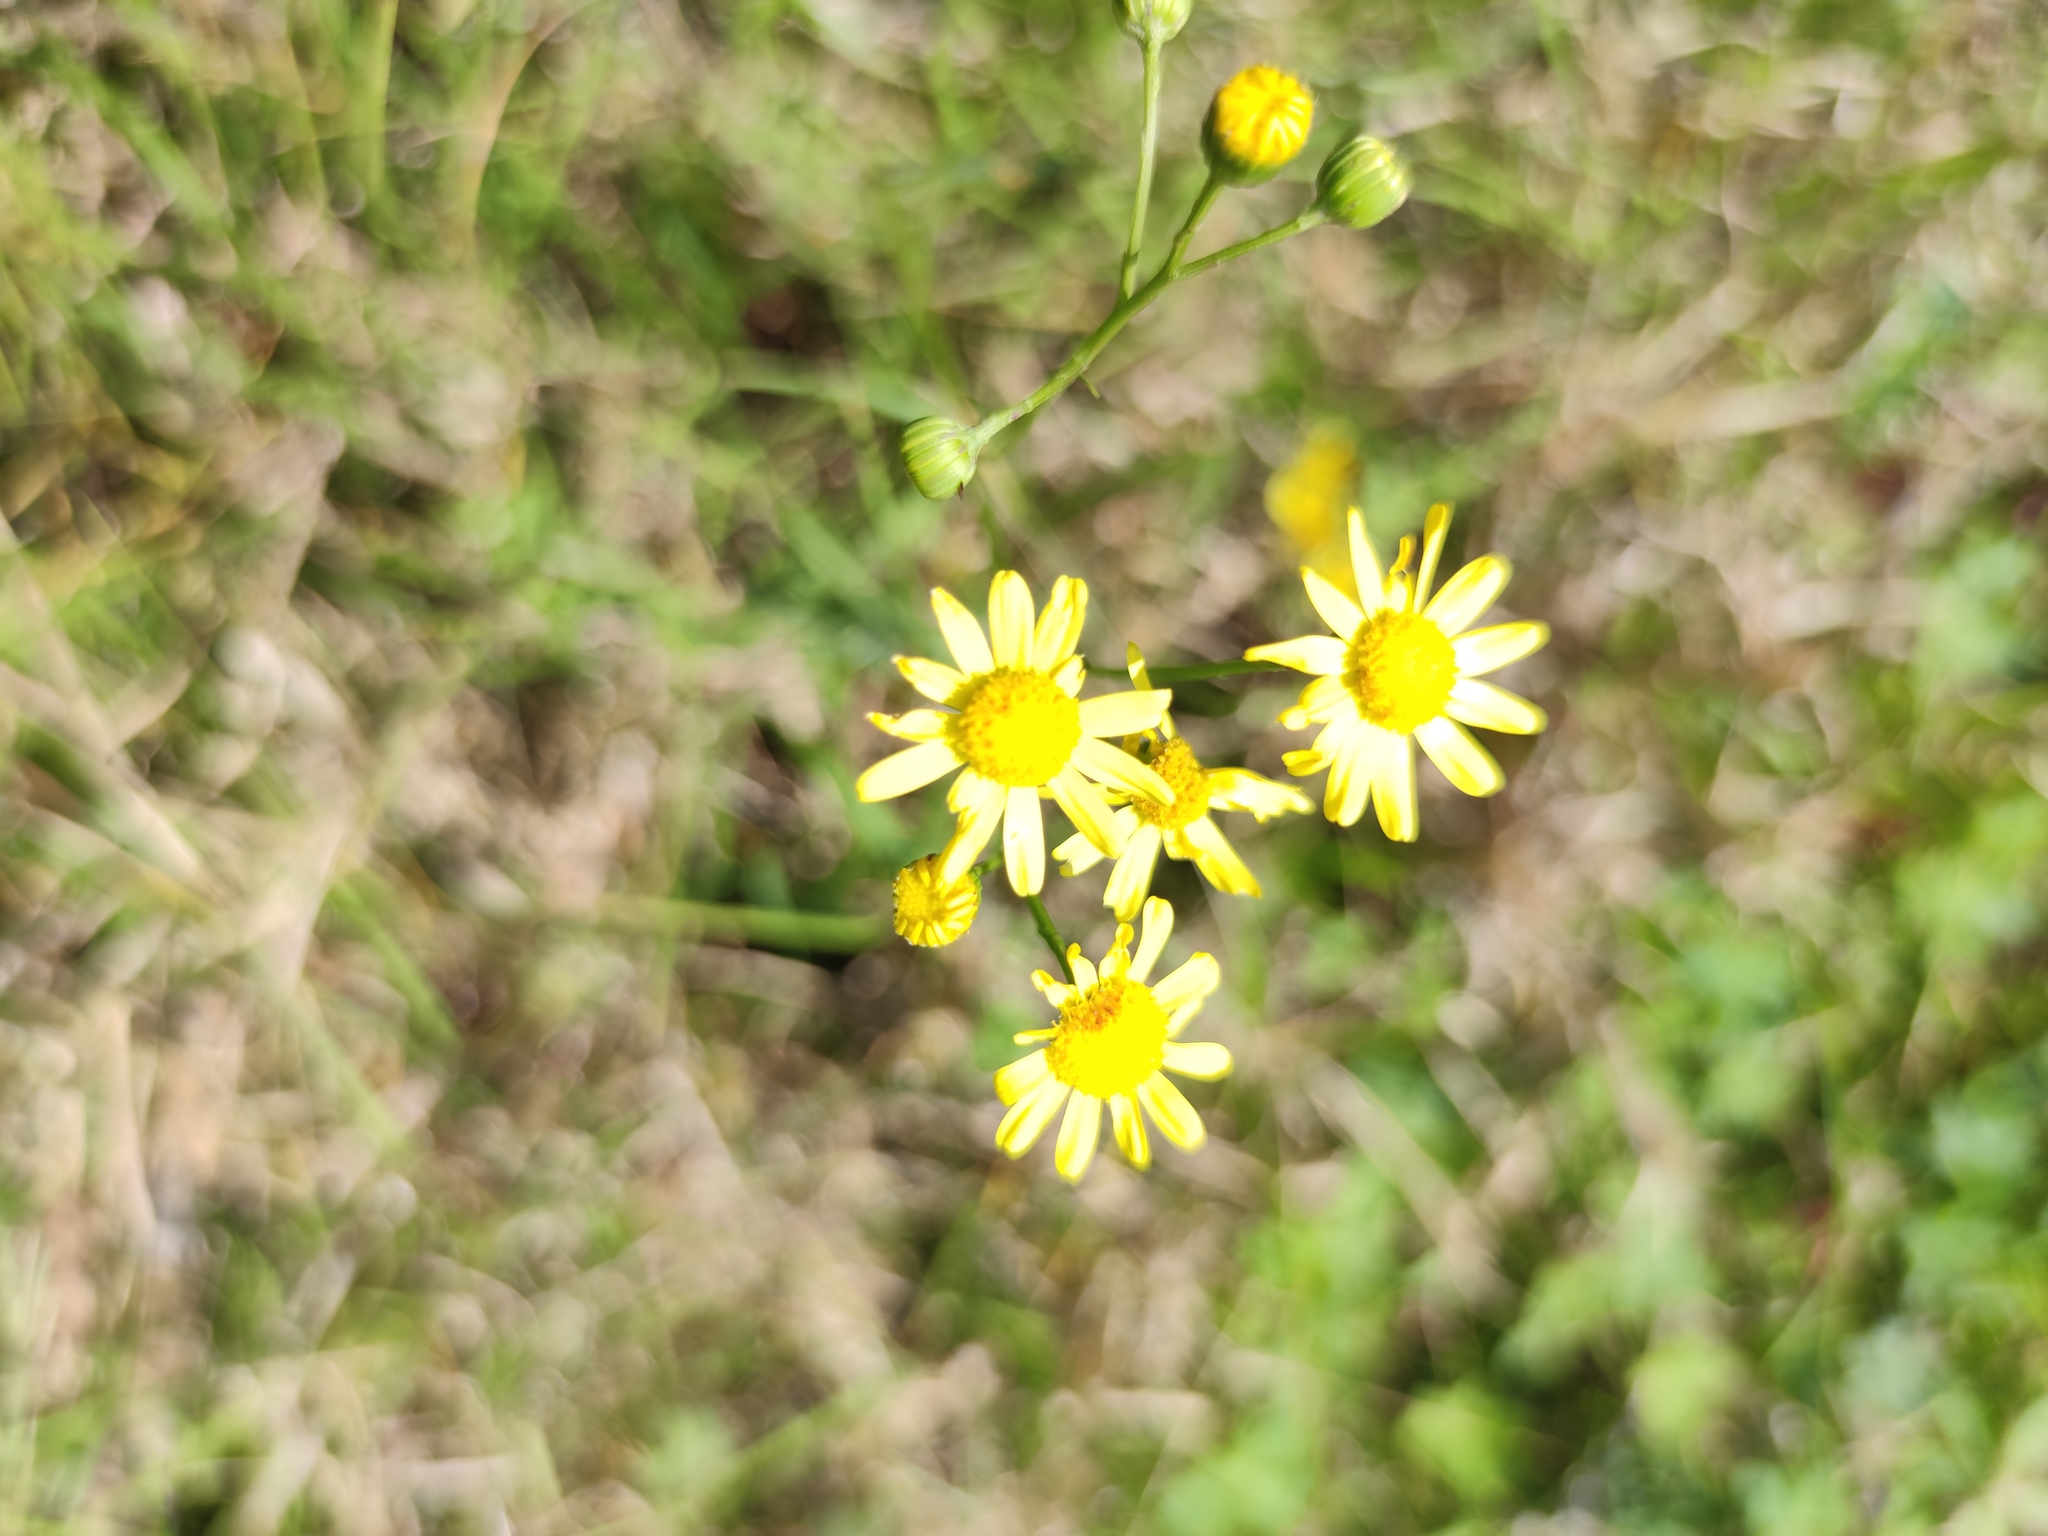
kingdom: Plantae
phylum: Tracheophyta
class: Magnoliopsida
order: Asterales
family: Asteraceae
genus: Senecio
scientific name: Senecio inaequidens
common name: Narrow-leaved ragwort
